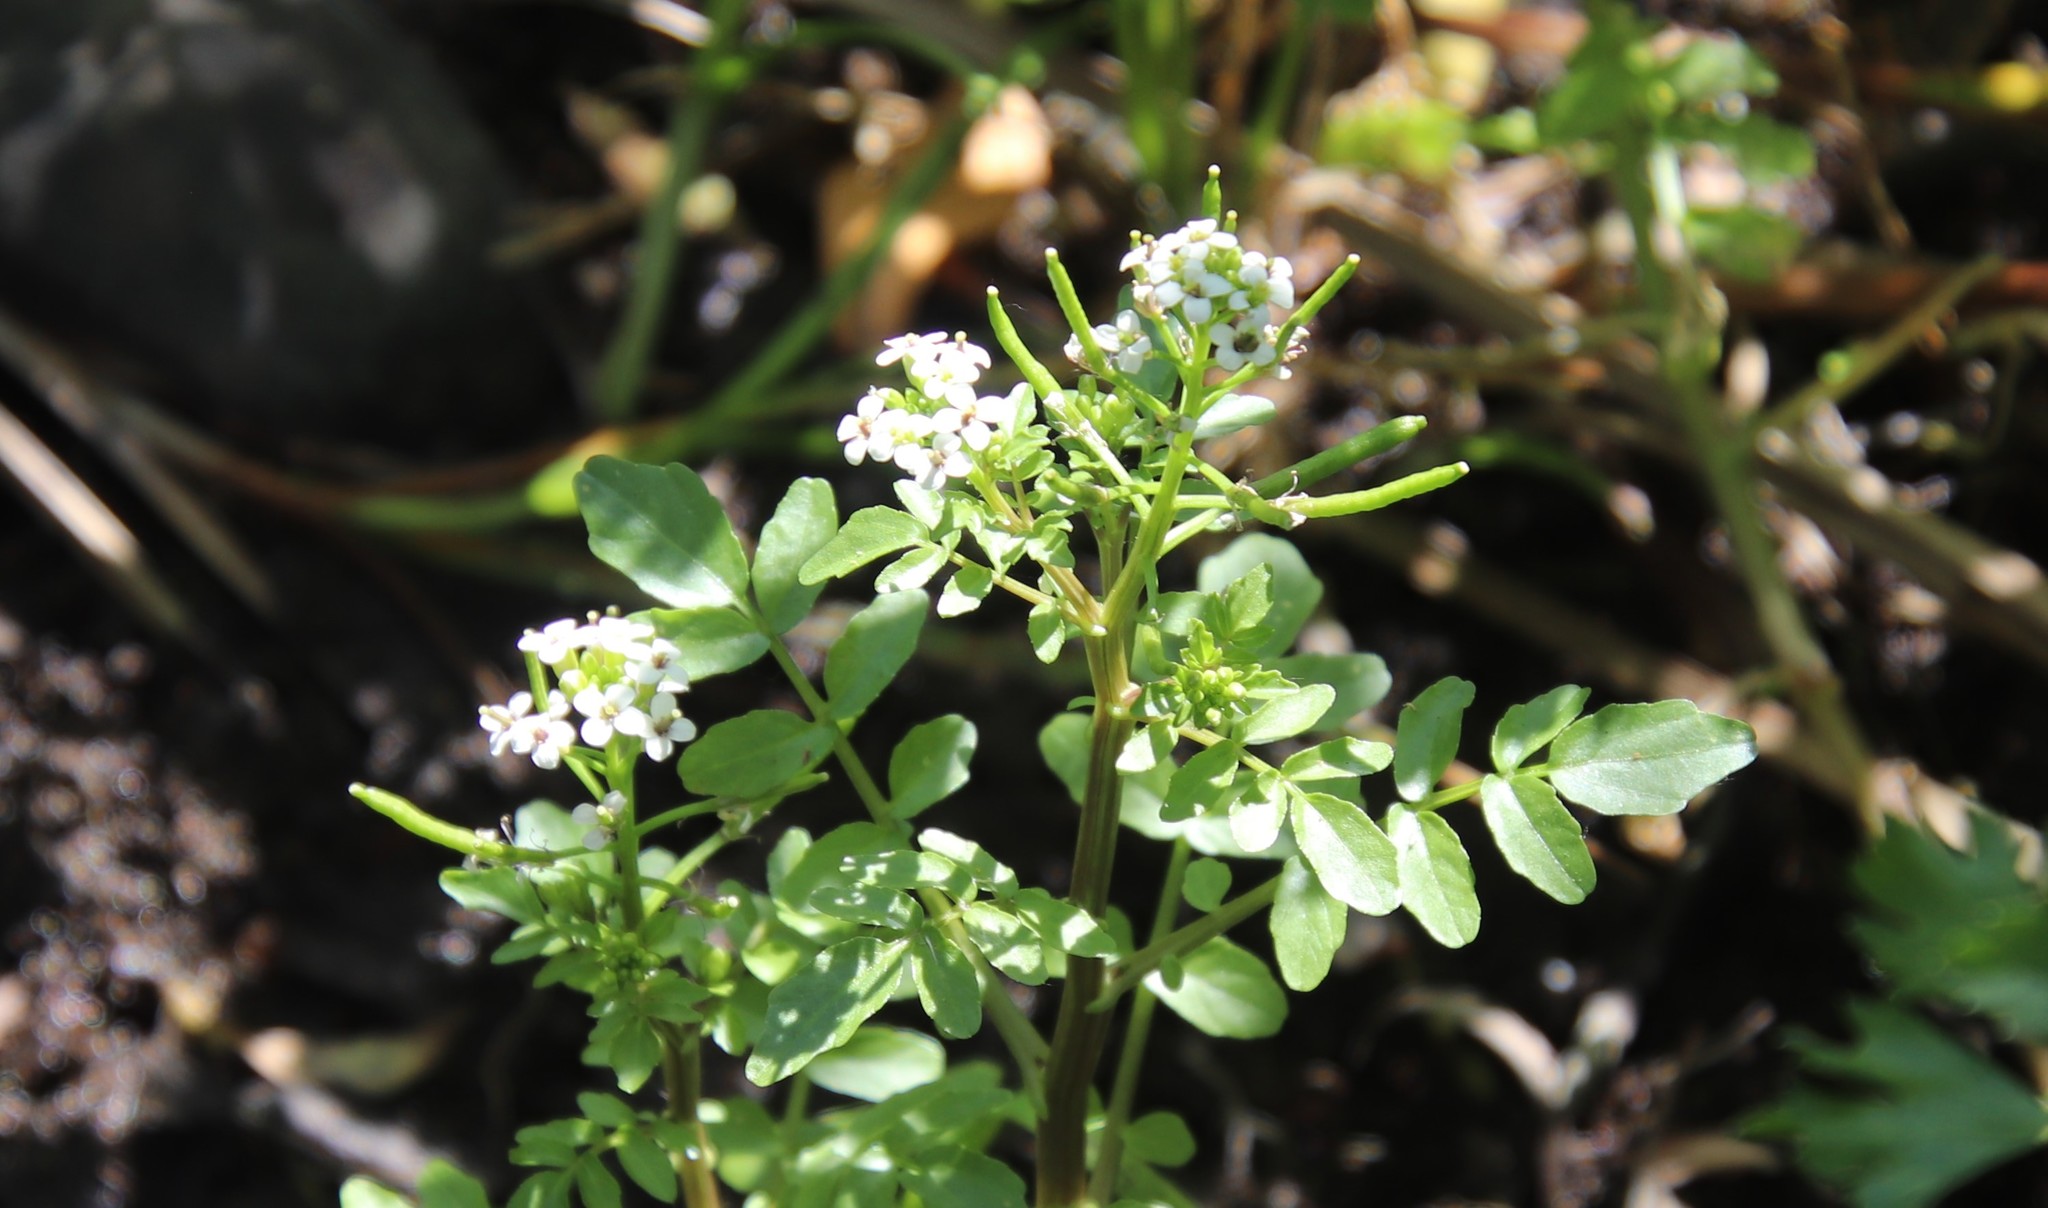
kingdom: Plantae
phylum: Tracheophyta
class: Magnoliopsida
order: Brassicales
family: Brassicaceae
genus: Nasturtium
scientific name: Nasturtium officinale
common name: Watercress
